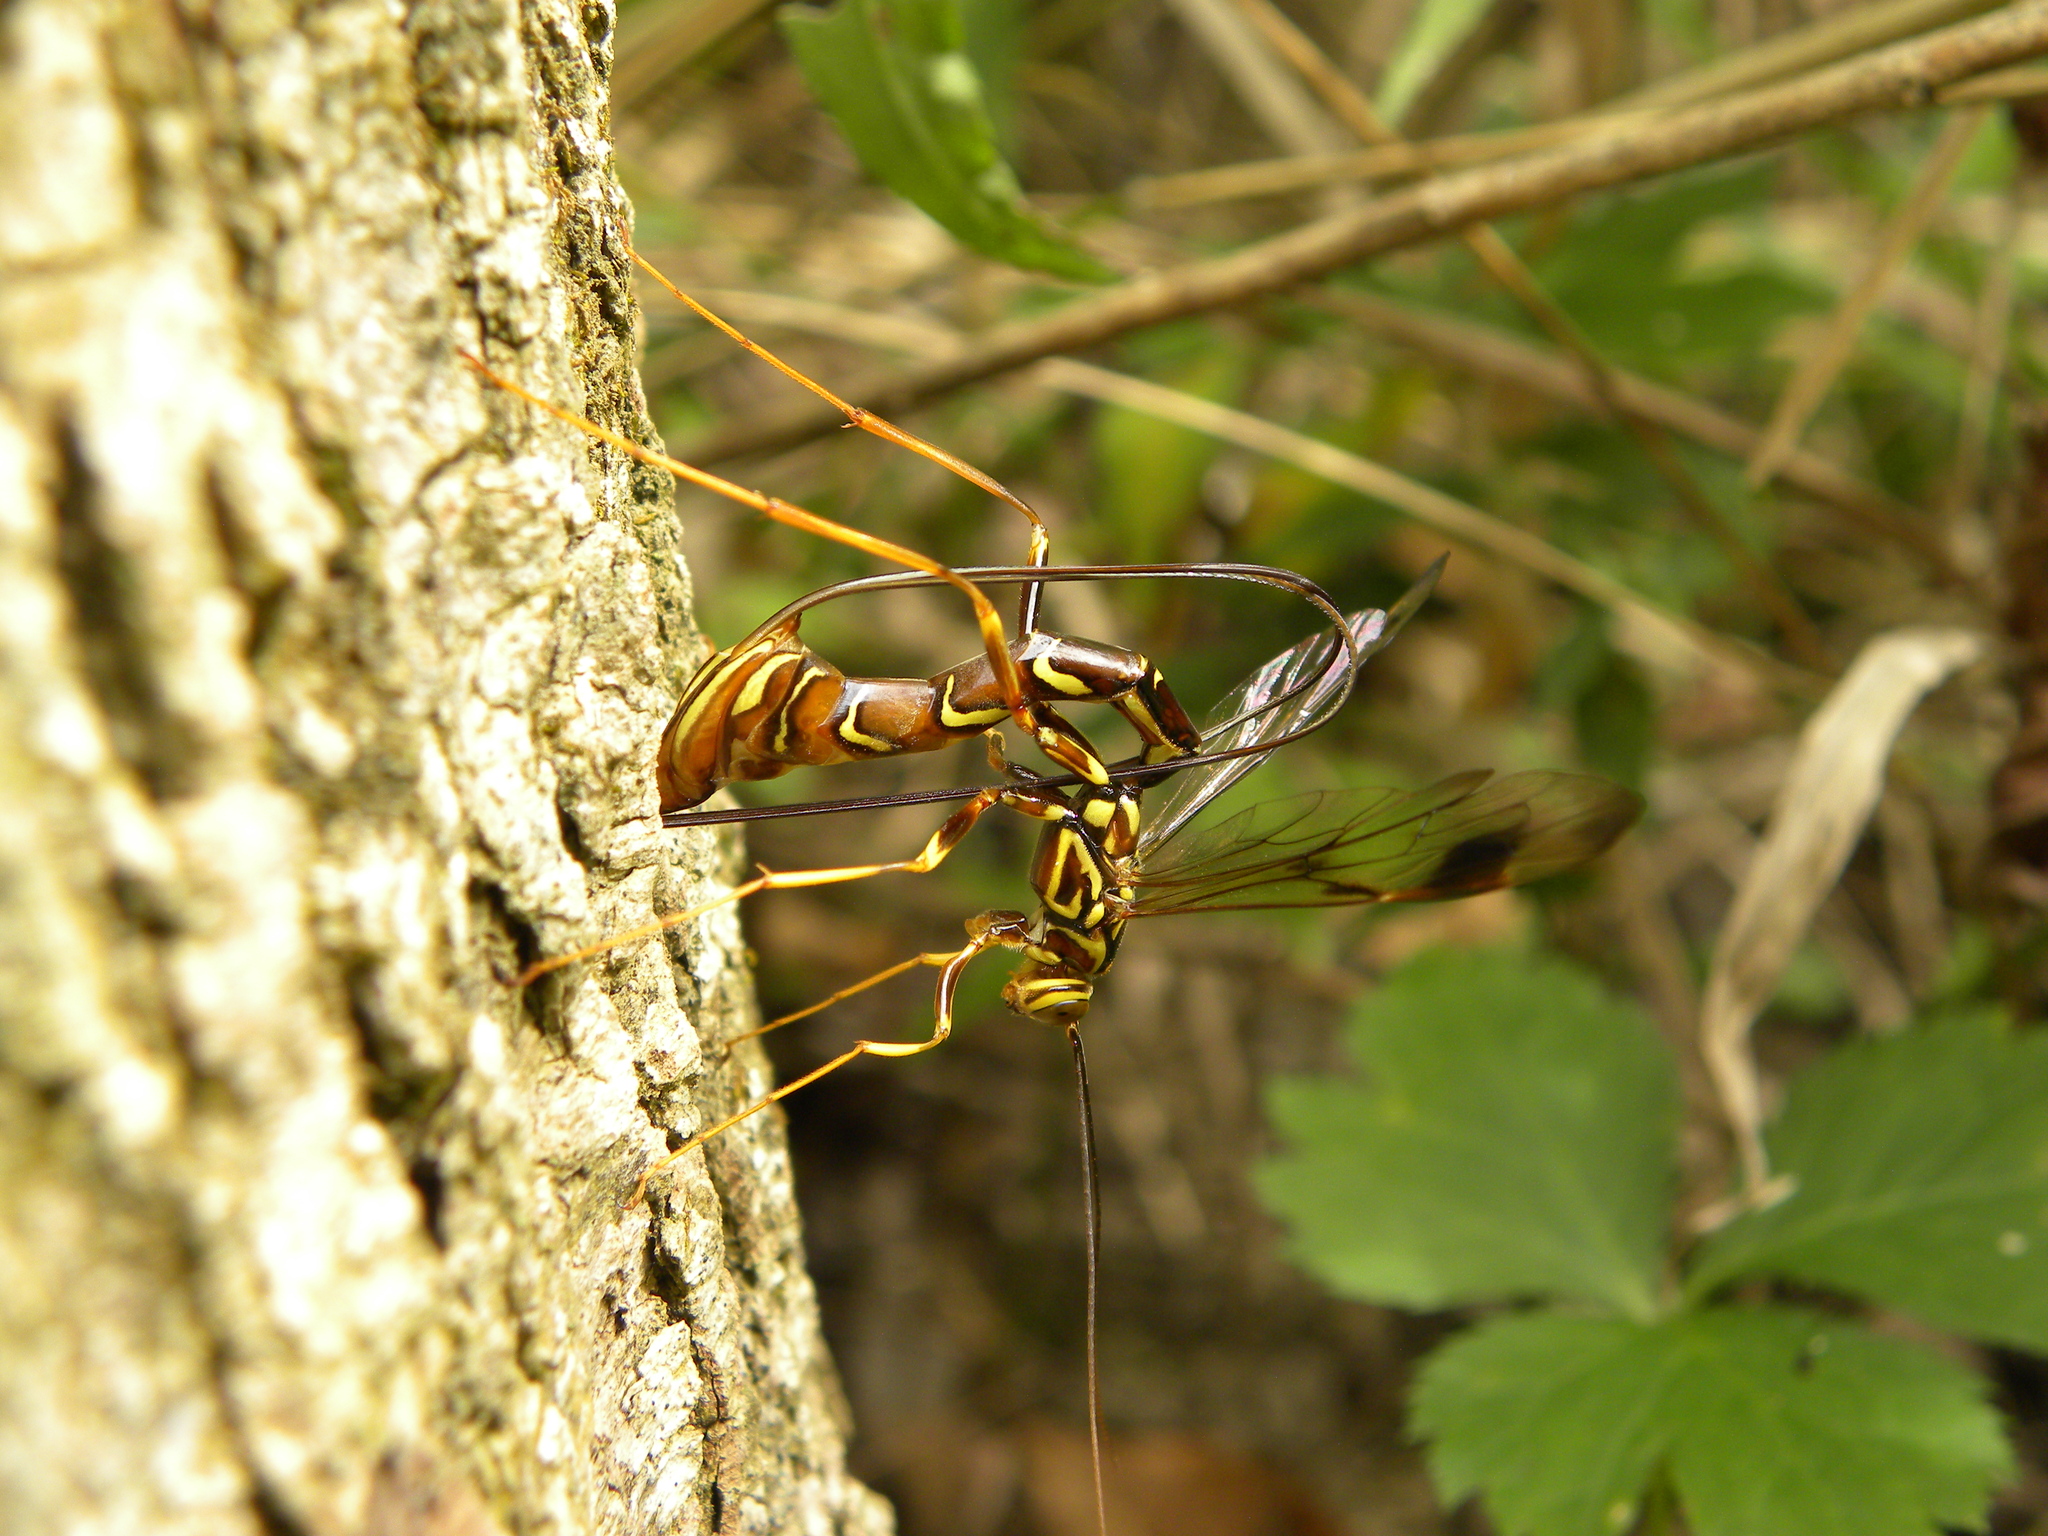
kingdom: Animalia
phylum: Arthropoda
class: Insecta
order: Hymenoptera
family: Ichneumonidae
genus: Megarhyssa
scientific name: Megarhyssa macrura
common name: Long-tailed giant ichneumonid wasp
